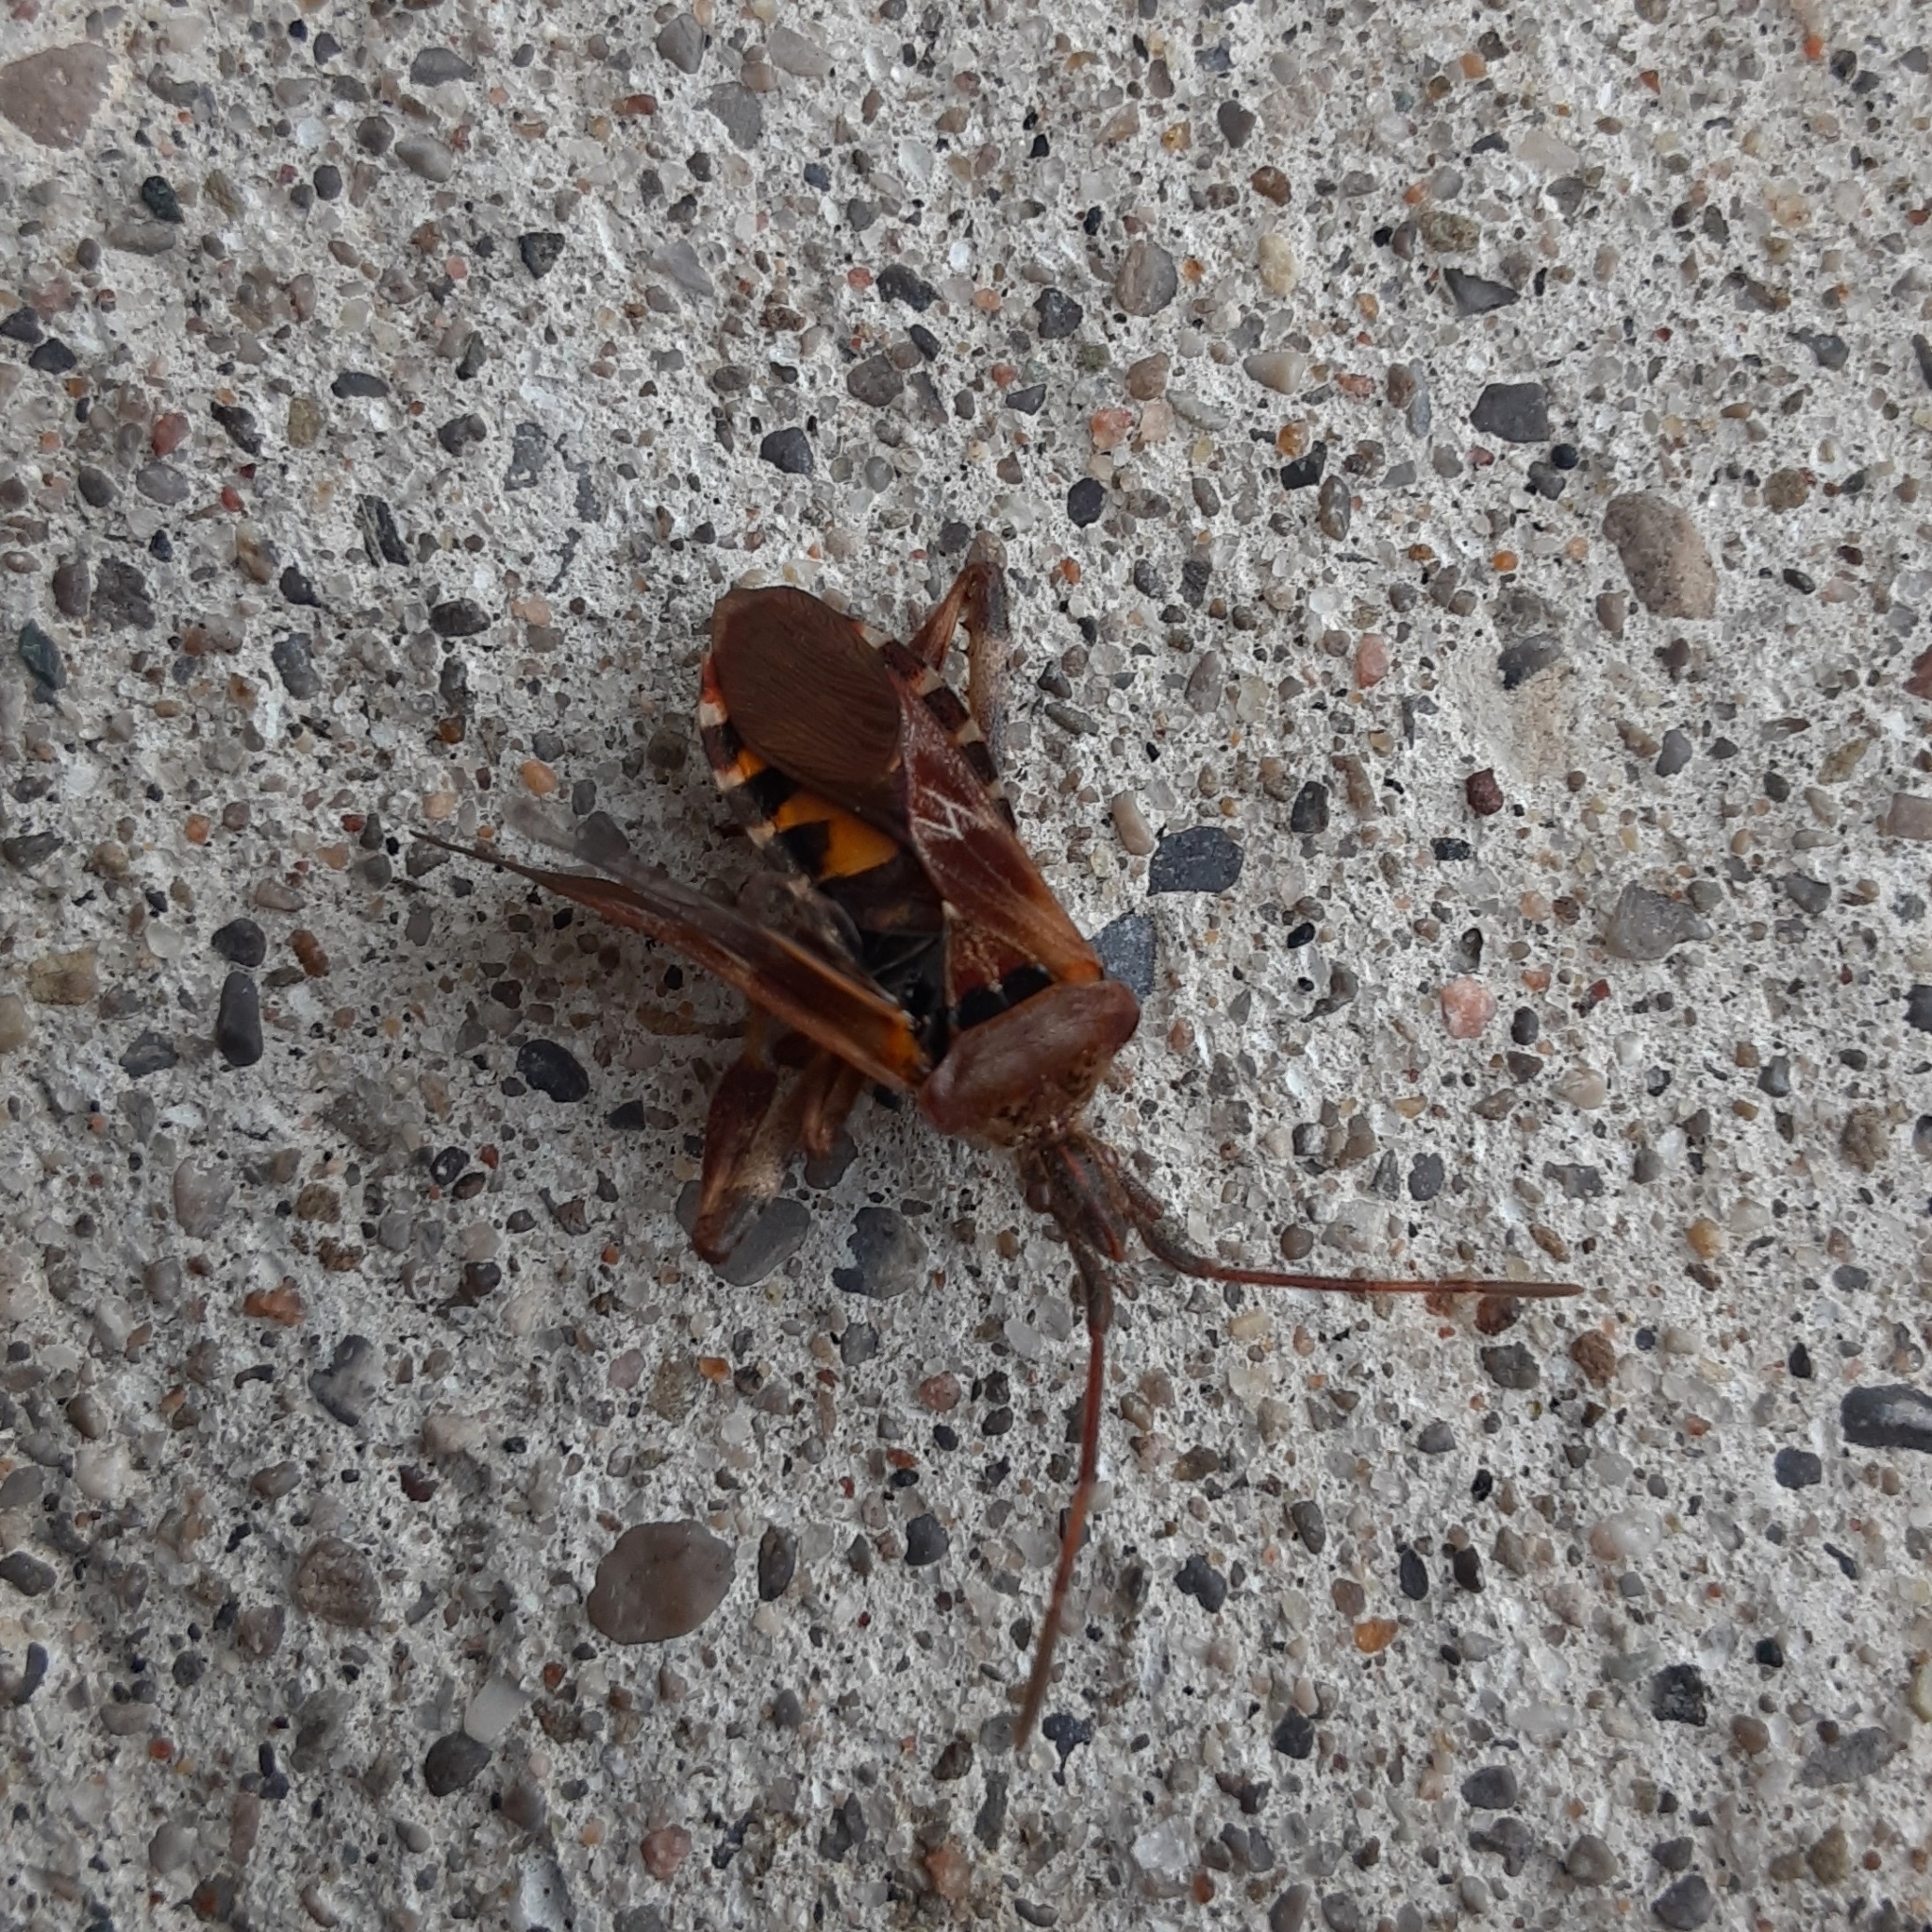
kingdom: Animalia
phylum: Arthropoda
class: Insecta
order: Hemiptera
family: Coreidae
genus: Leptoglossus
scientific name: Leptoglossus occidentalis
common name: Western conifer-seed bug
